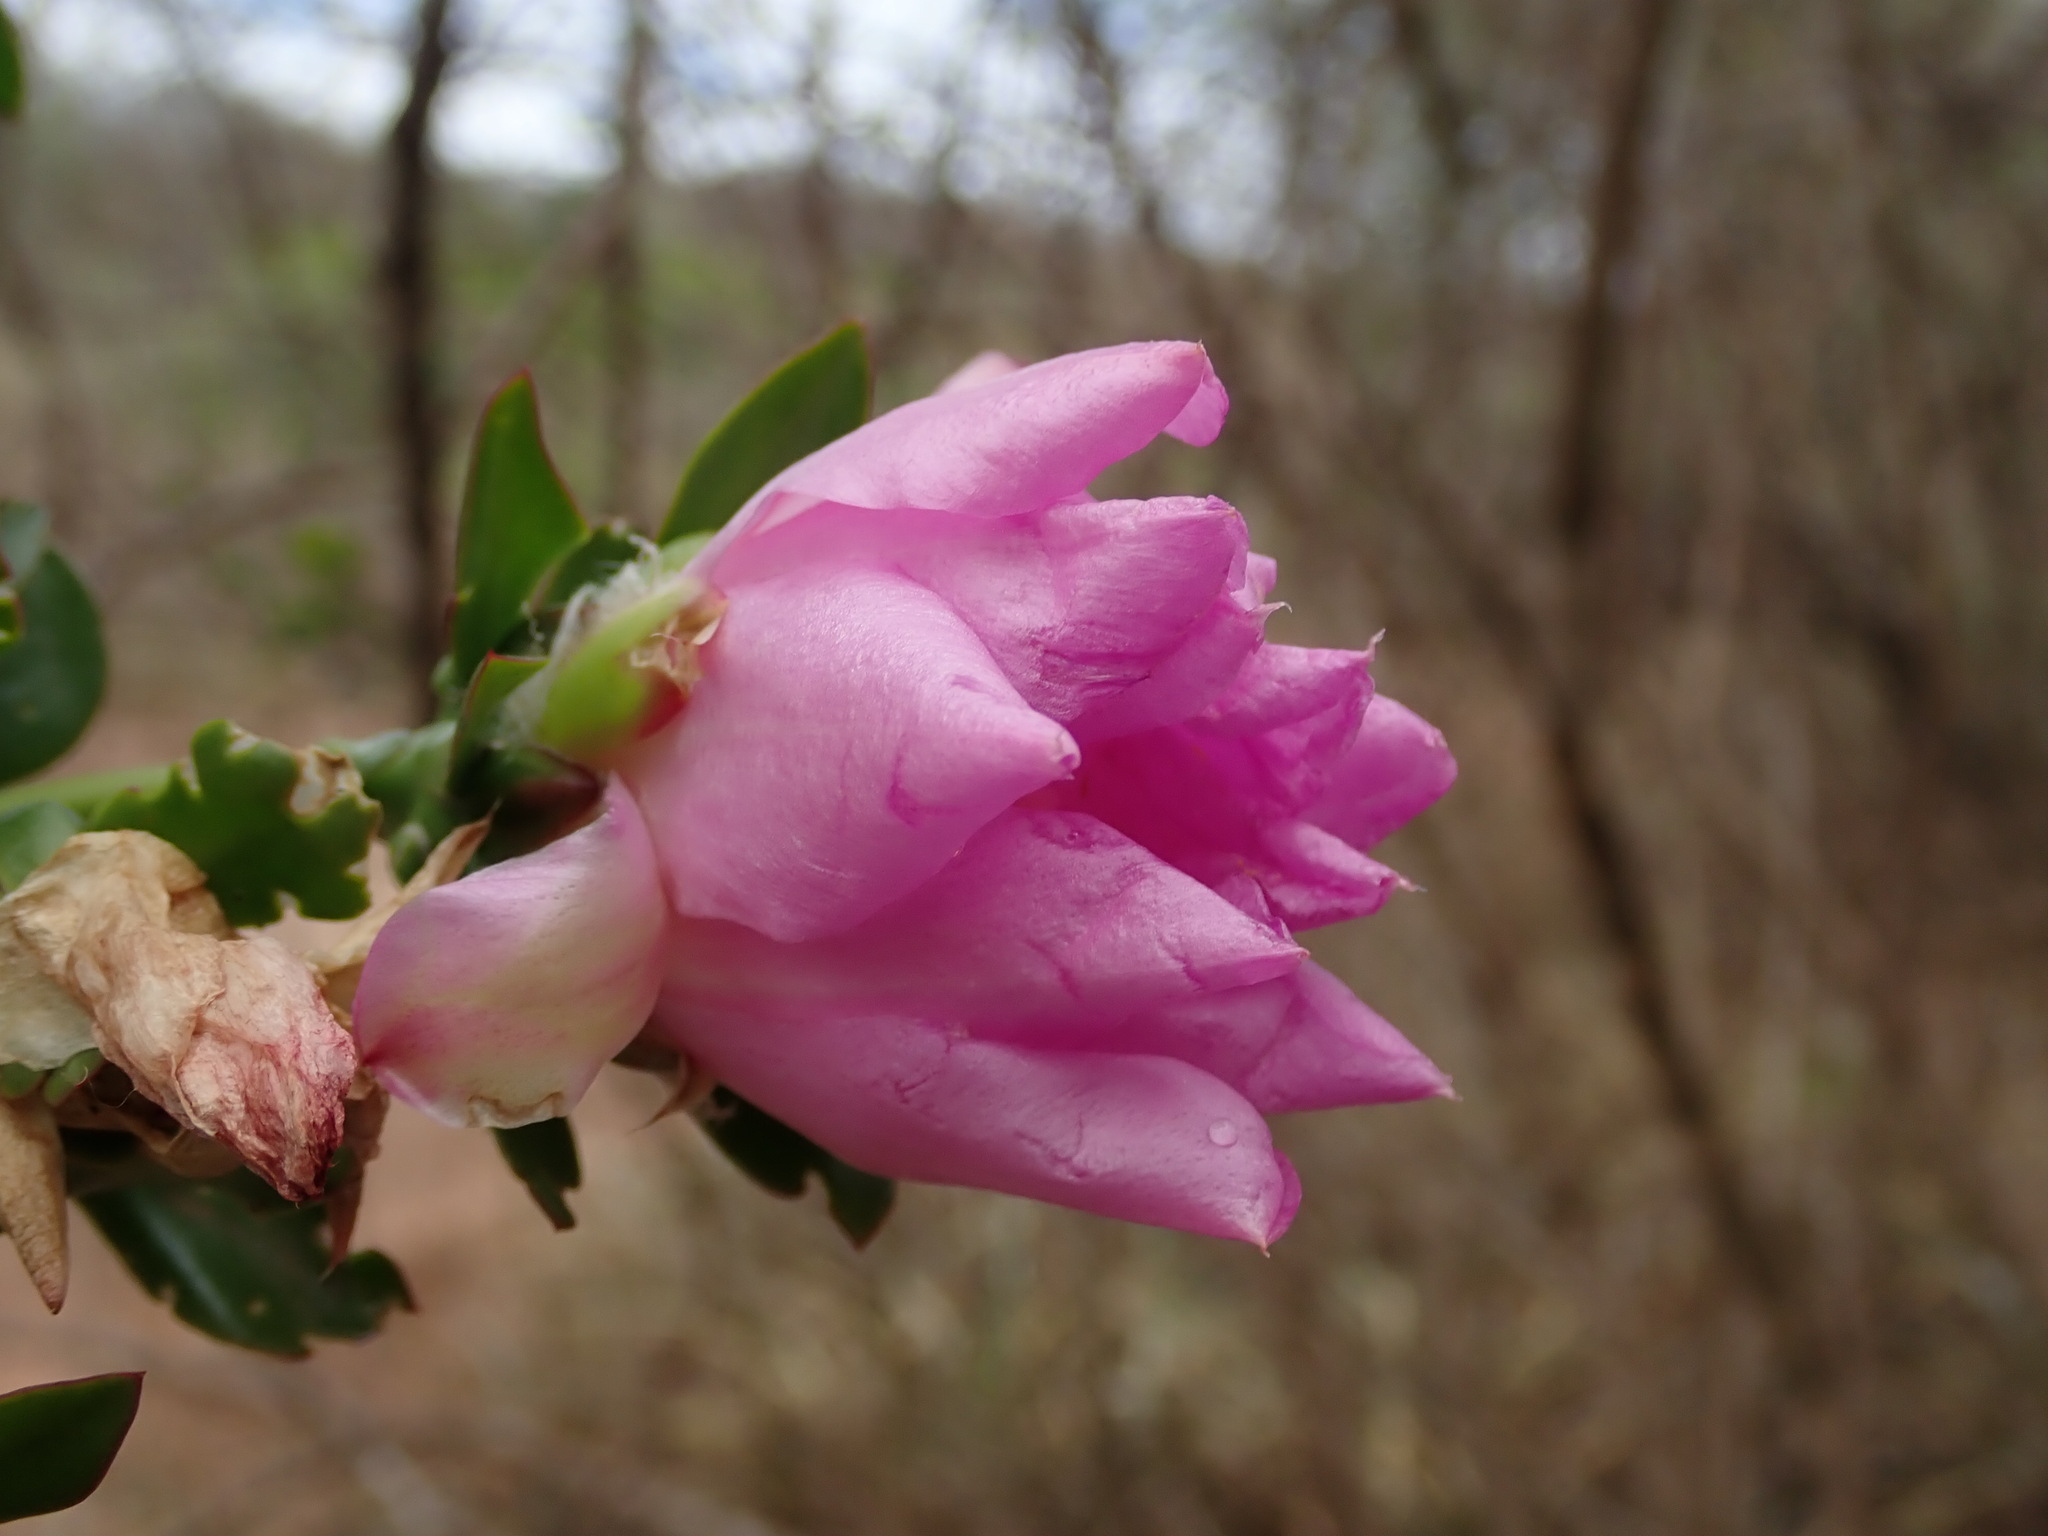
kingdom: Plantae
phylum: Tracheophyta
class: Magnoliopsida
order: Caryophyllales
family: Cactaceae
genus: Pereskia
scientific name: Pereskia sacharosa
